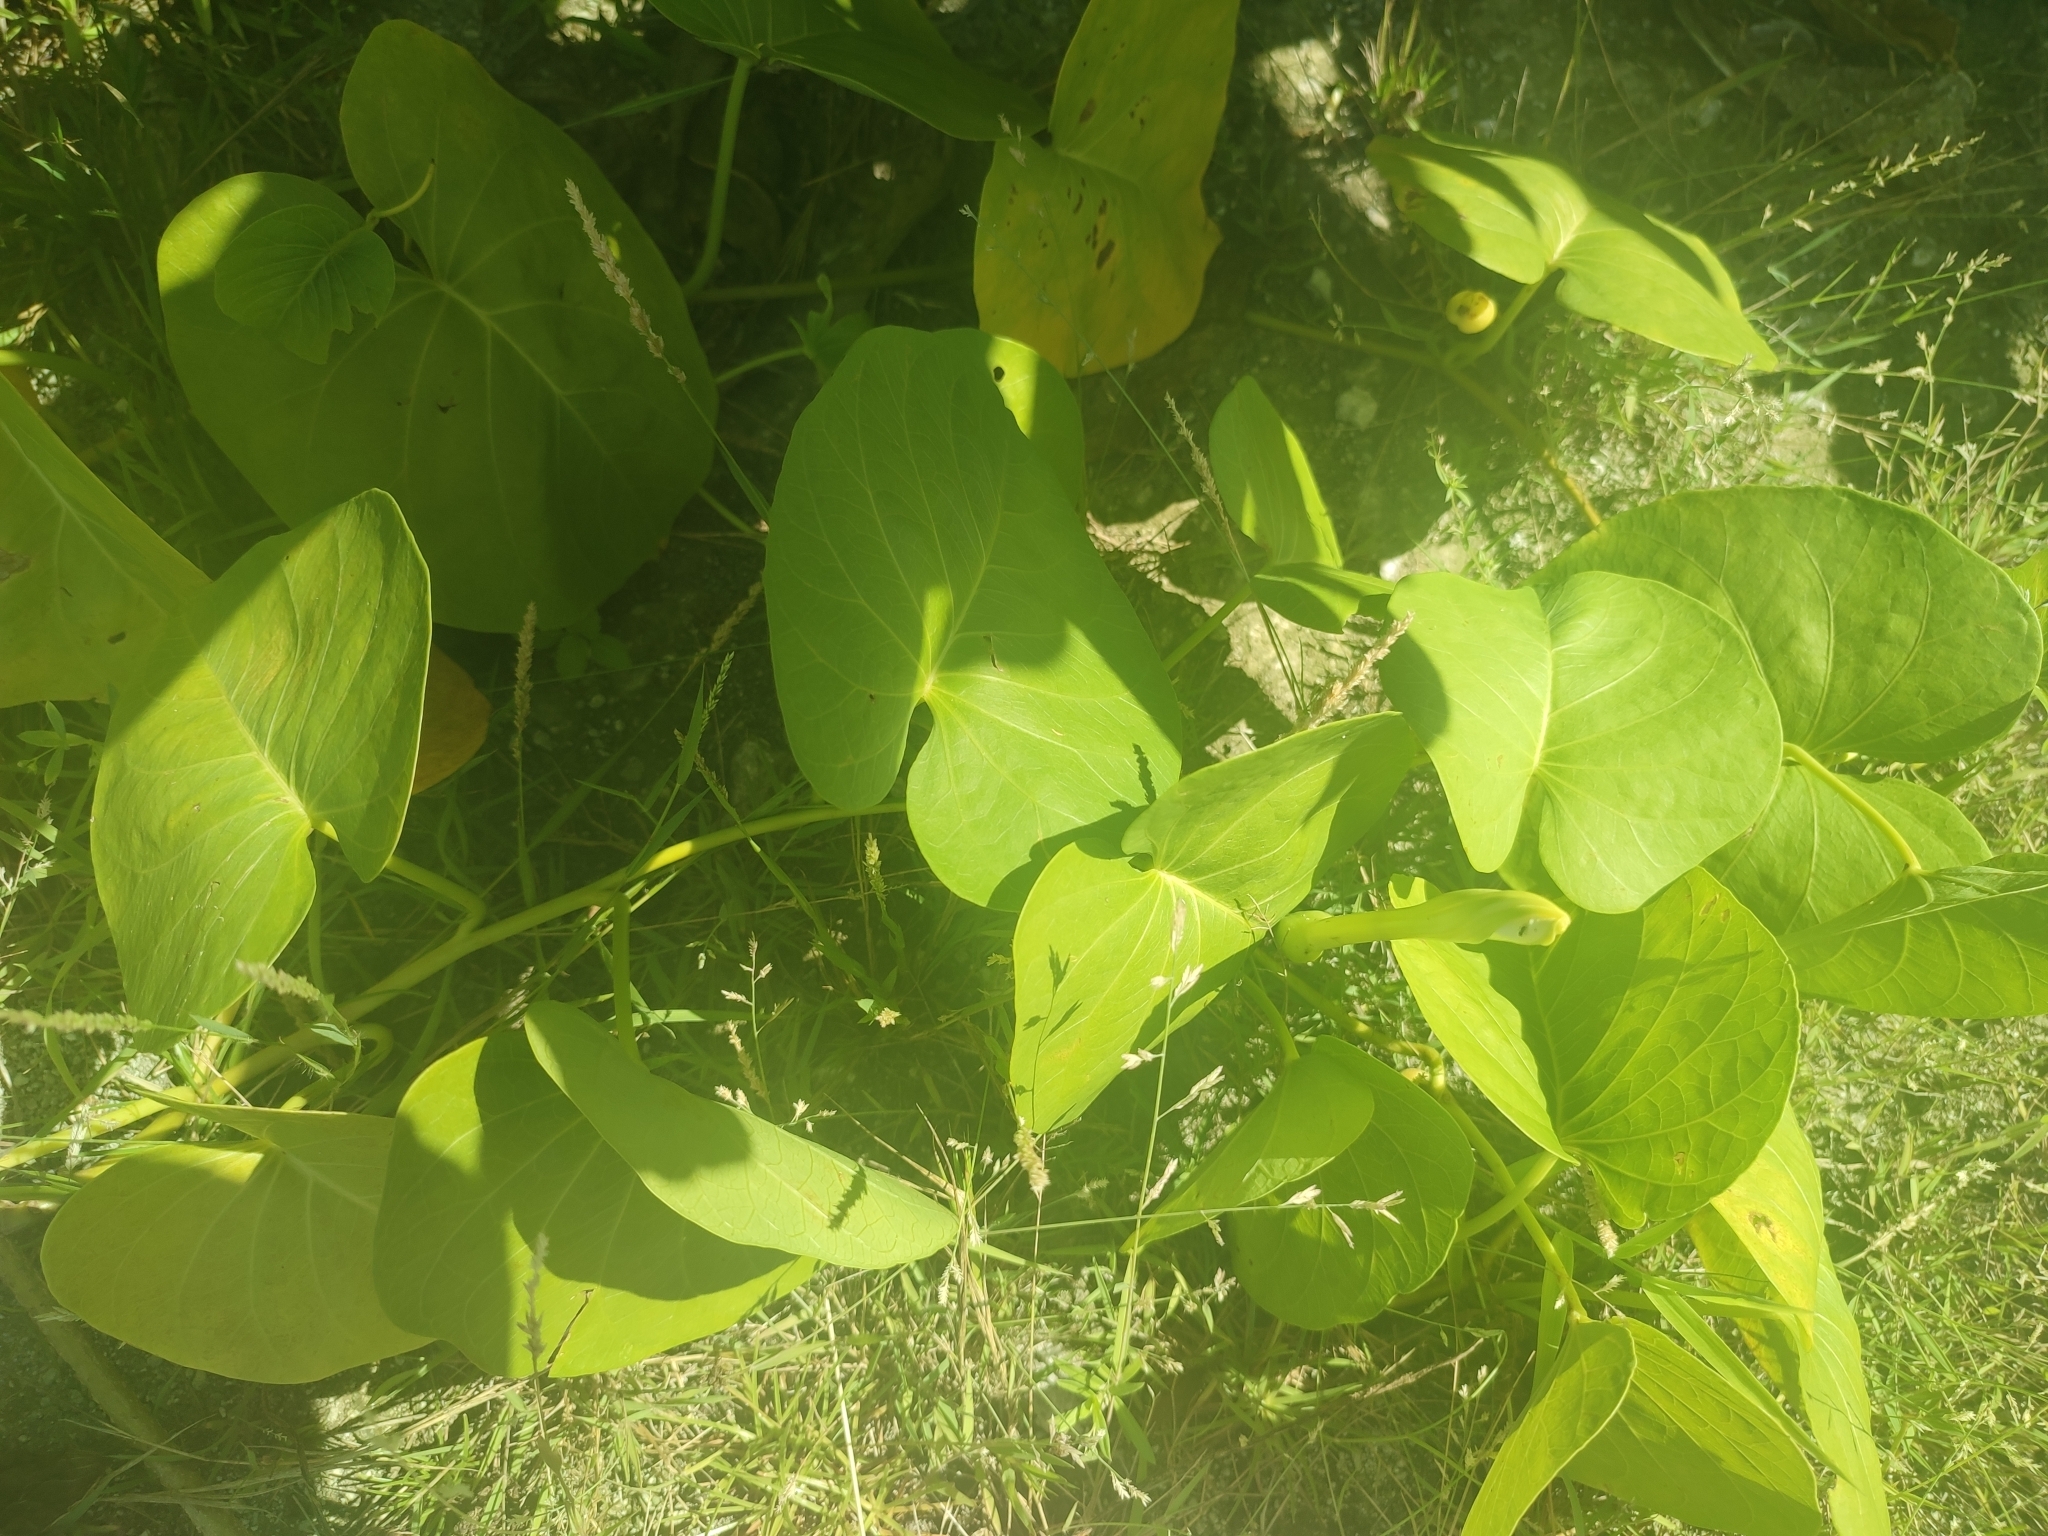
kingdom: Plantae
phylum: Tracheophyta
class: Magnoliopsida
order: Solanales
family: Convolvulaceae
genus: Ipomoea
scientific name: Ipomoea violacea
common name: Beach moonflower
